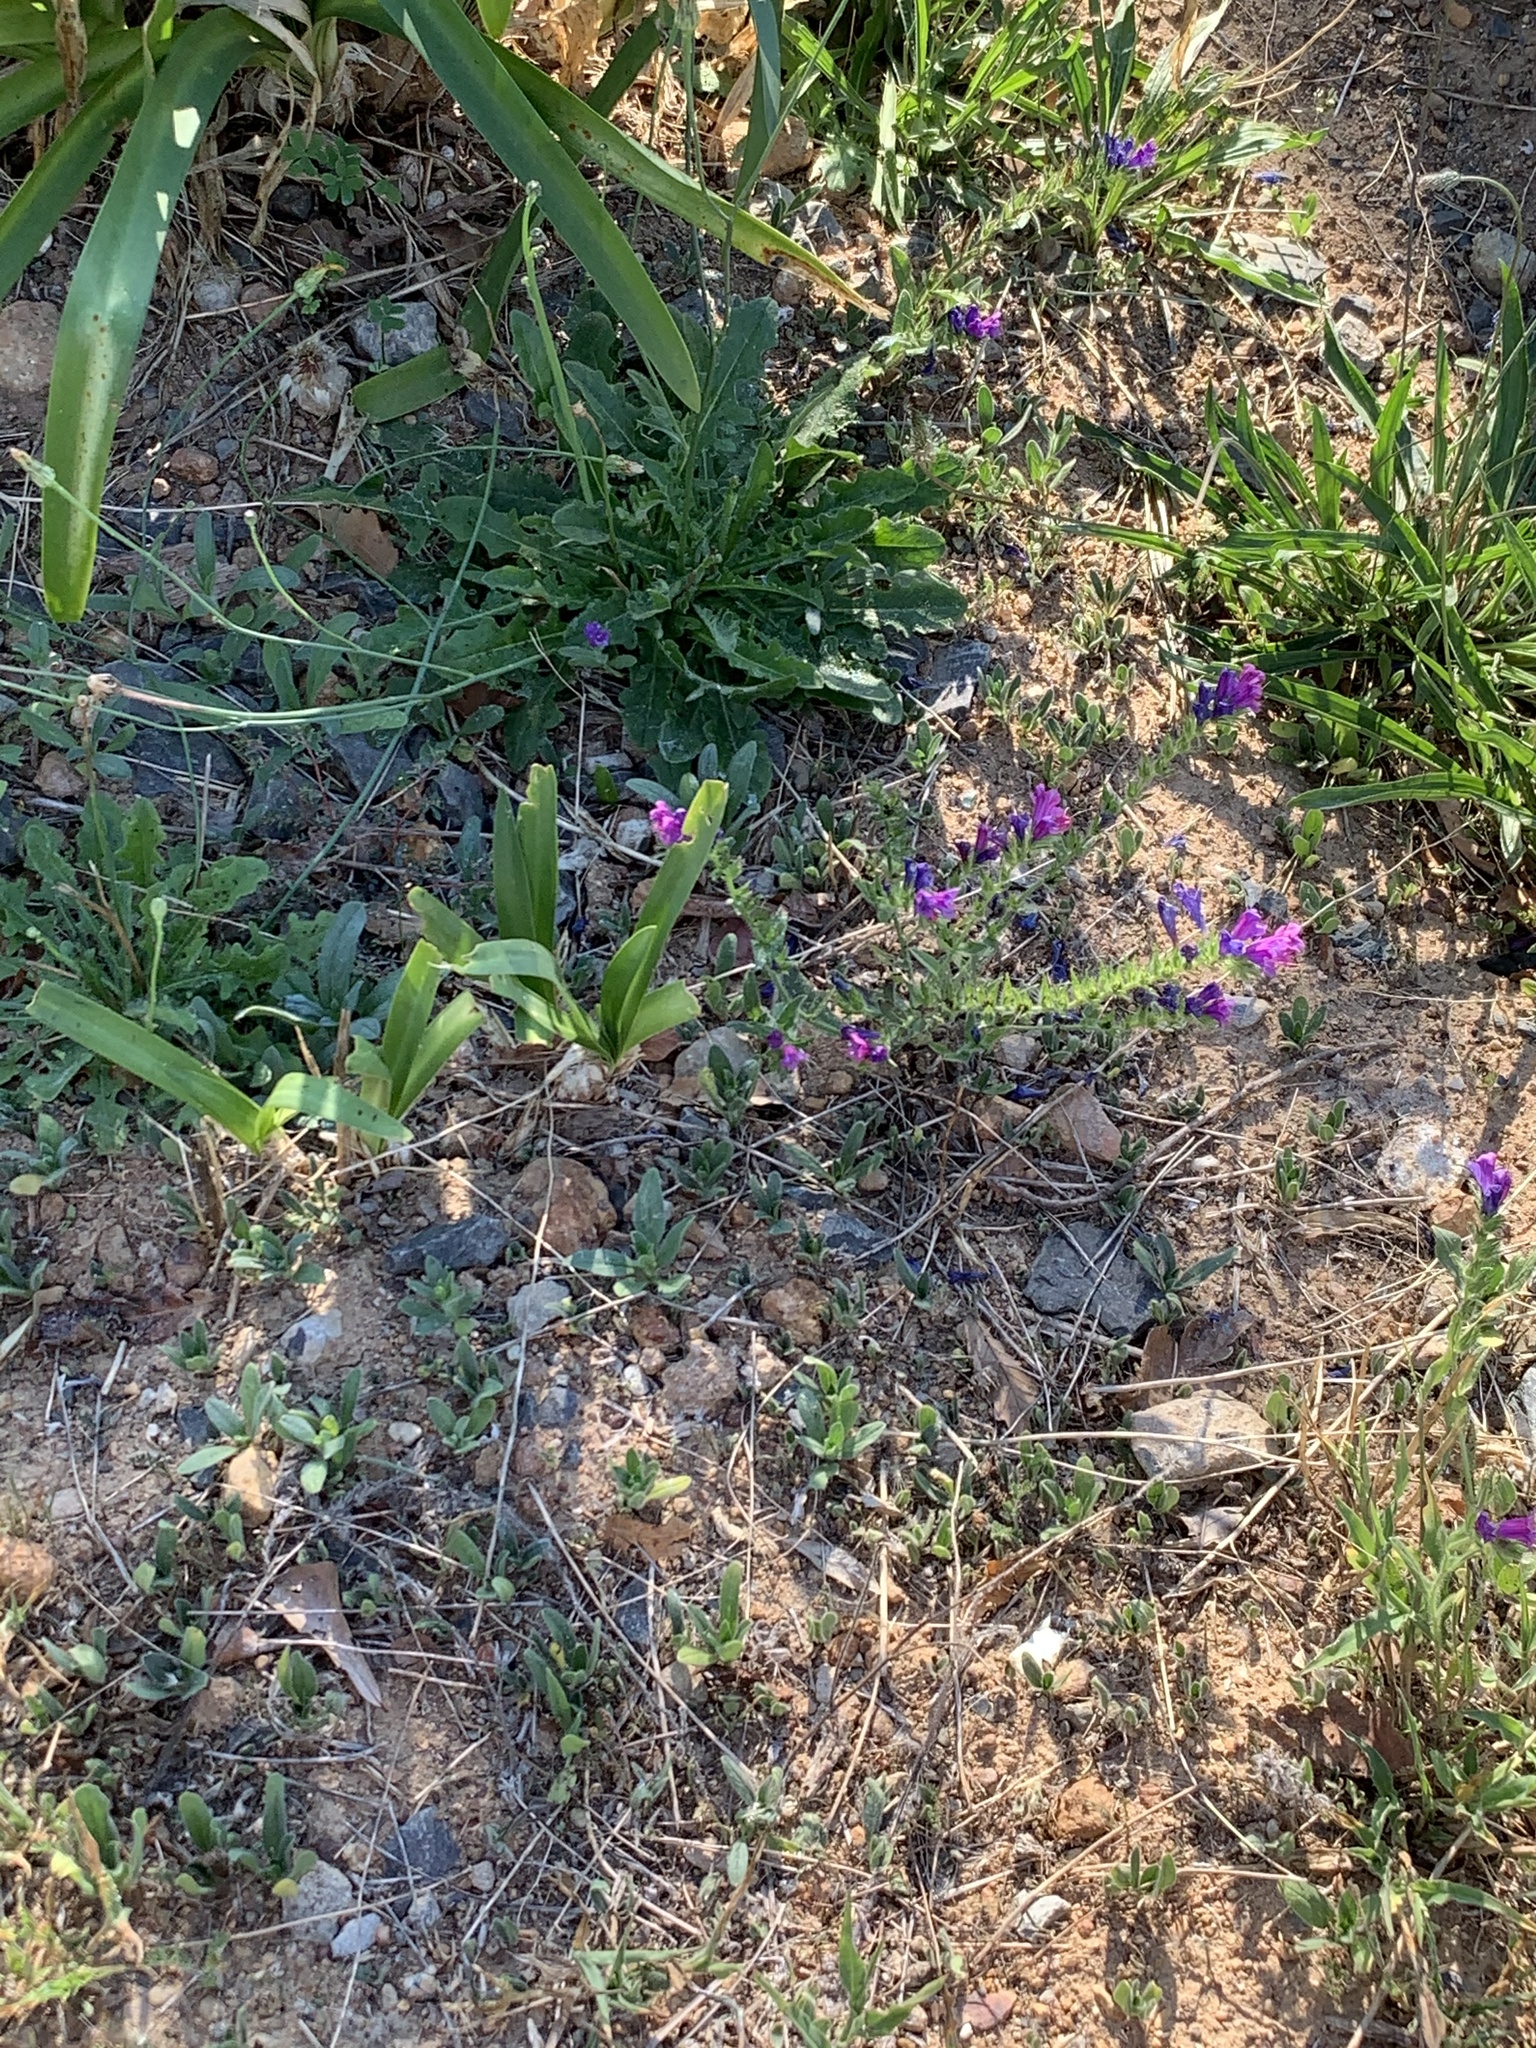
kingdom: Plantae
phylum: Tracheophyta
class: Magnoliopsida
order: Boraginales
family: Boraginaceae
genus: Echium
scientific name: Echium plantagineum
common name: Purple viper's-bugloss
